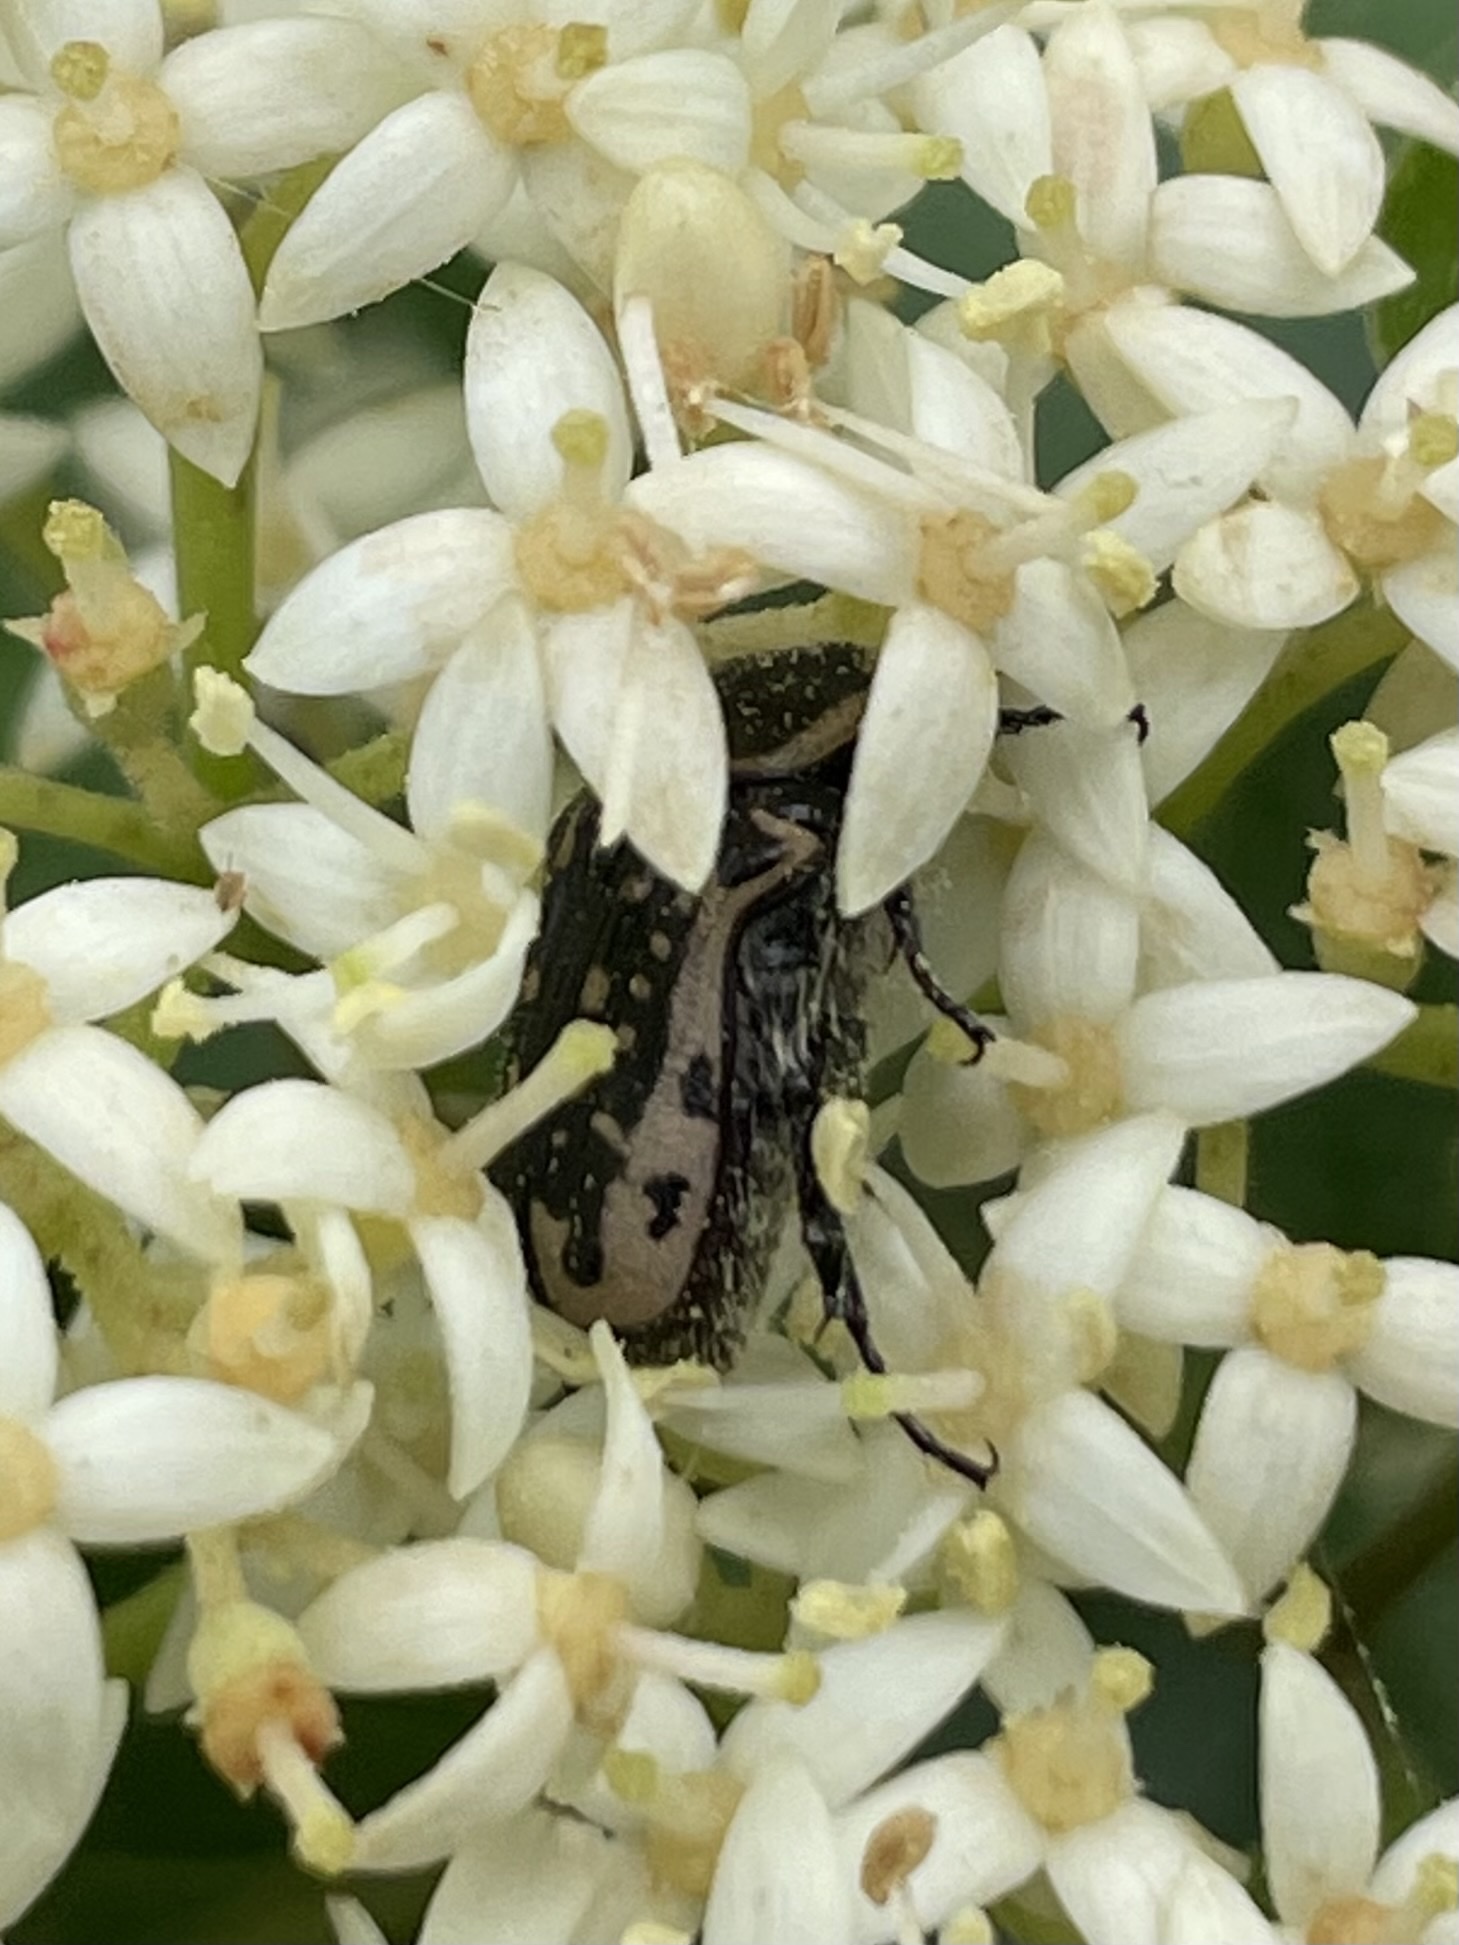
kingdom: Animalia
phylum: Arthropoda
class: Insecta
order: Coleoptera
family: Scarabaeidae
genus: Euphoria
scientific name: Euphoria kernii
